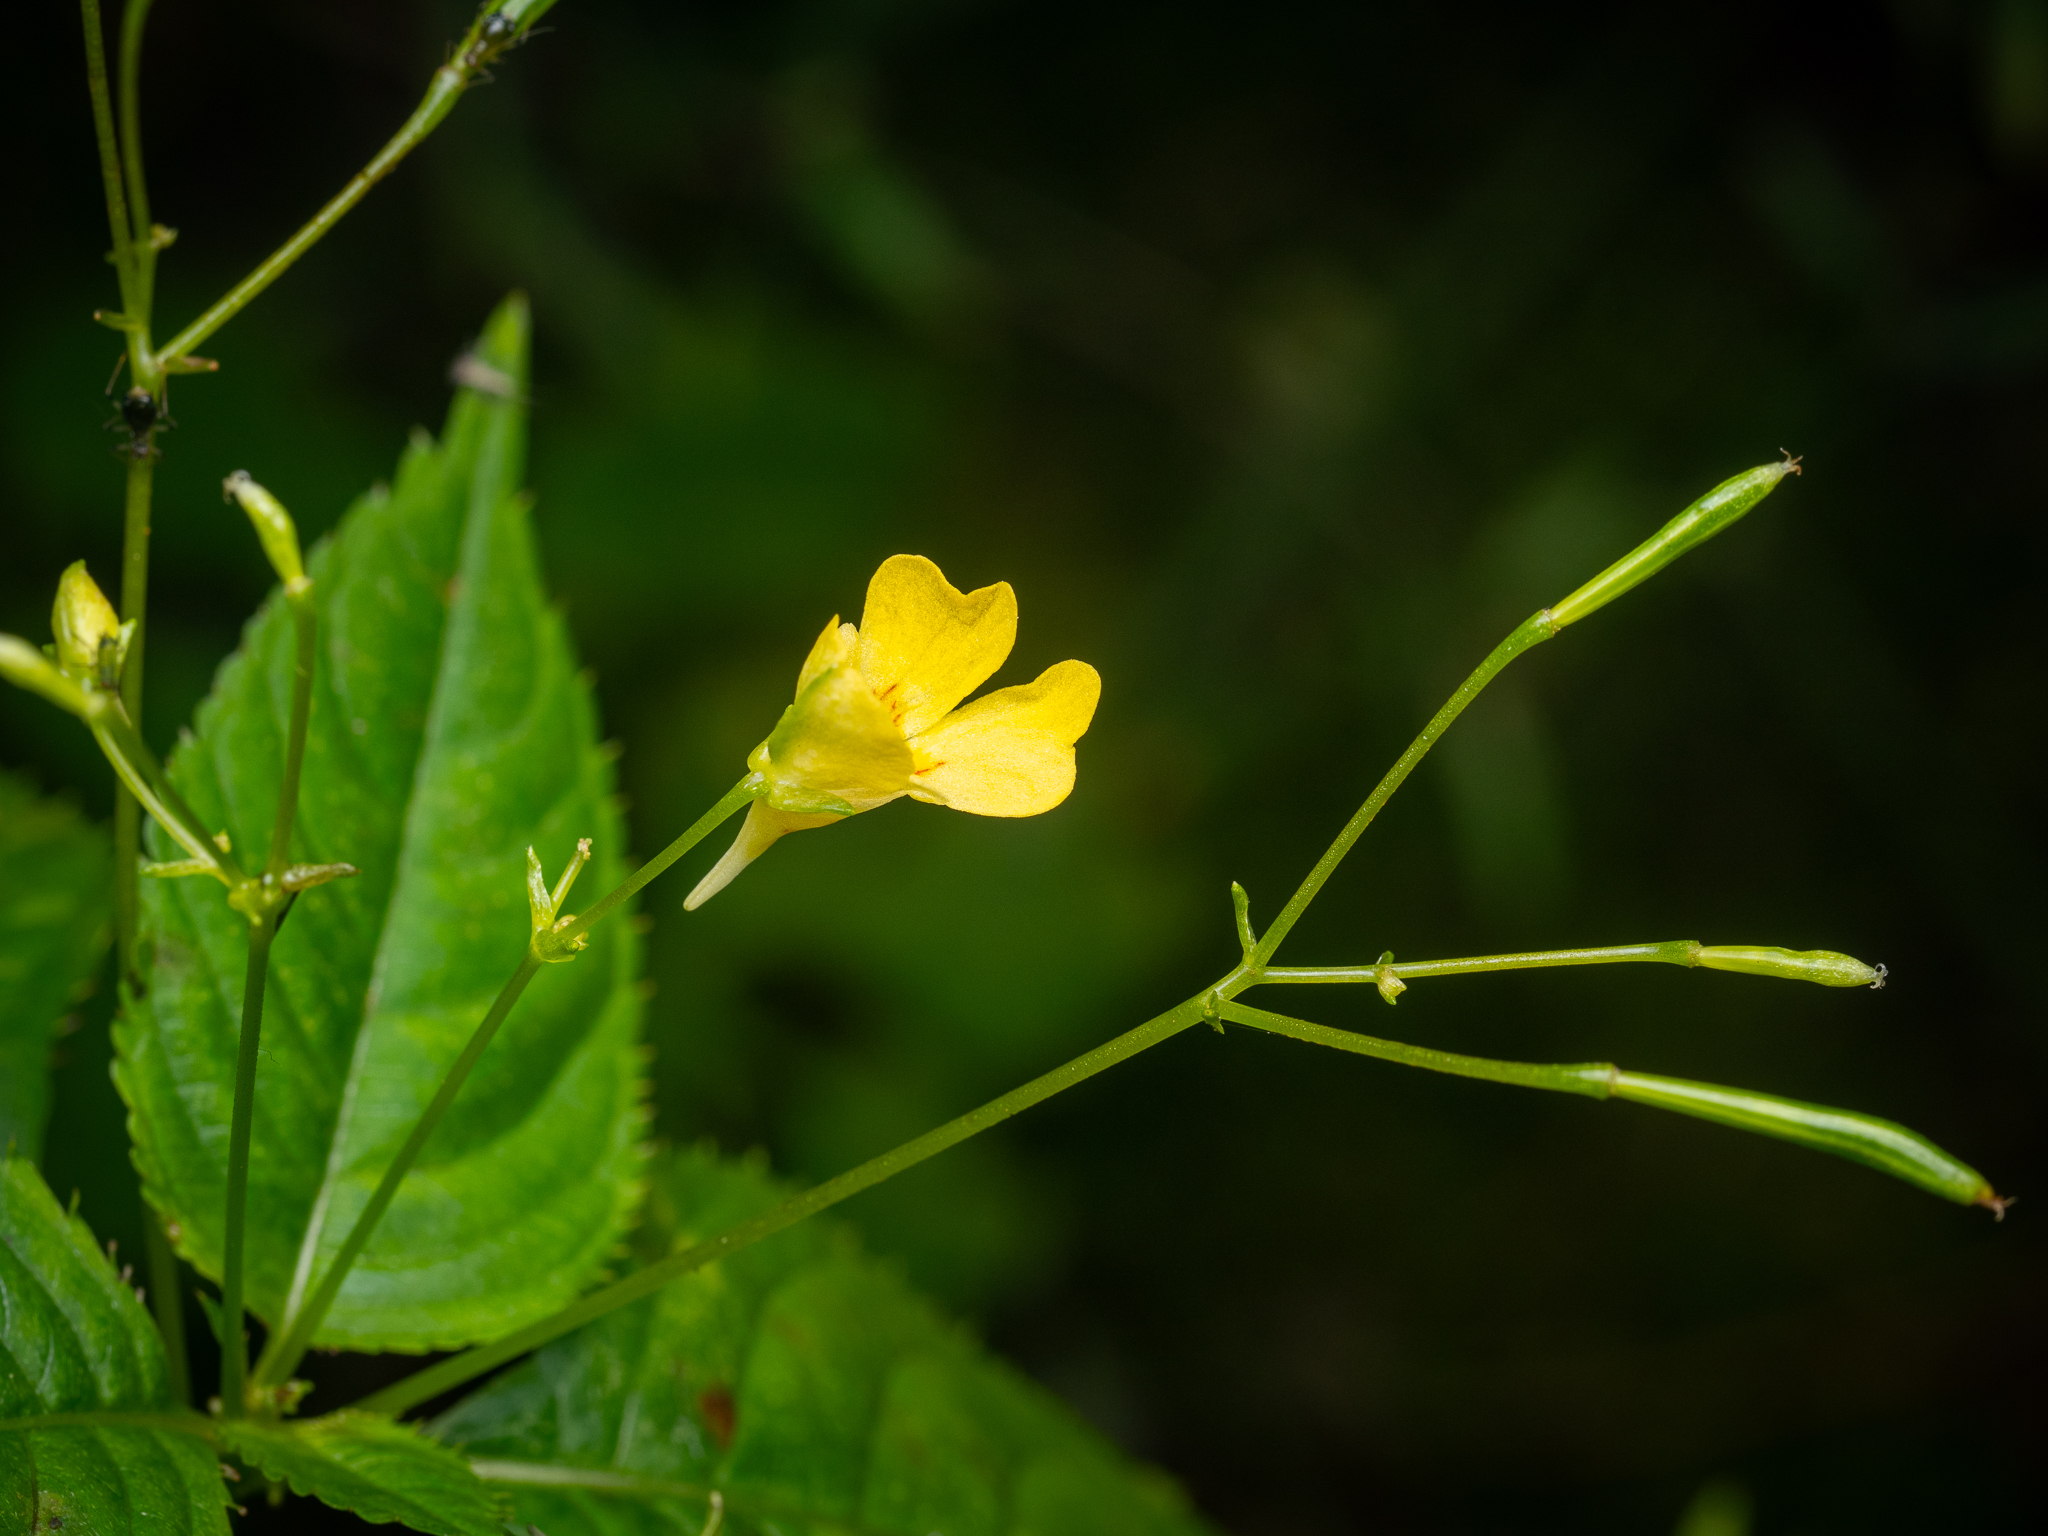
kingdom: Plantae
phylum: Tracheophyta
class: Magnoliopsida
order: Ericales
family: Balsaminaceae
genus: Impatiens
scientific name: Impatiens parviflora
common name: Small balsam
